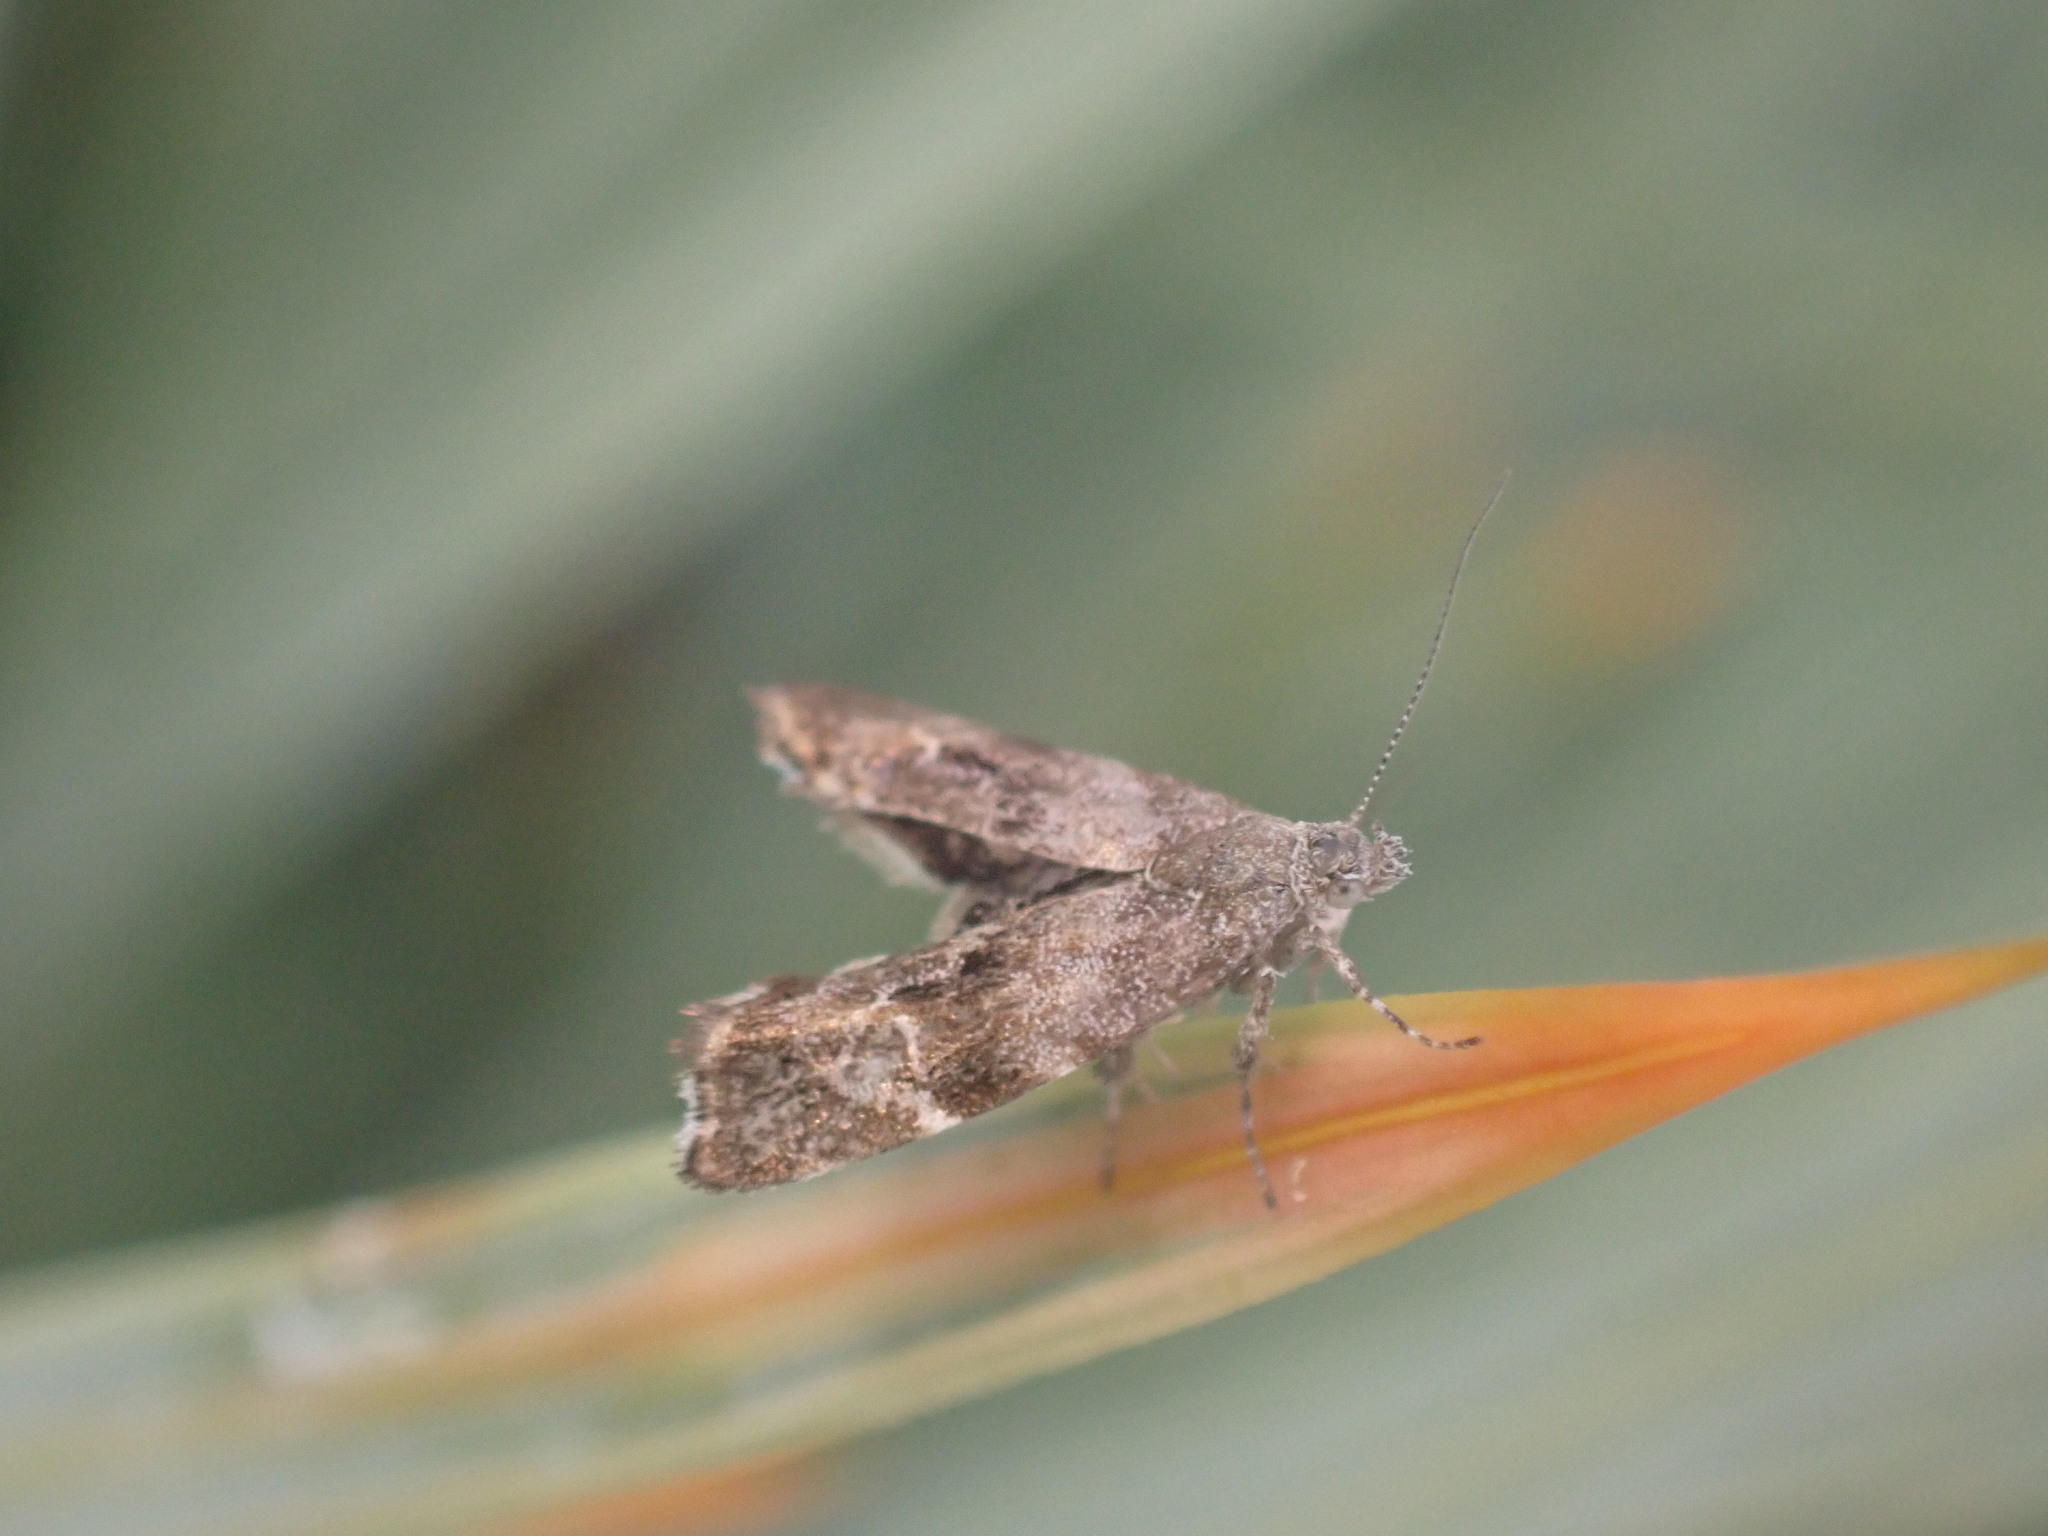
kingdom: Animalia
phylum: Arthropoda
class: Insecta
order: Lepidoptera
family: Choreutidae
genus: Asterivora
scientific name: Asterivora colpota
